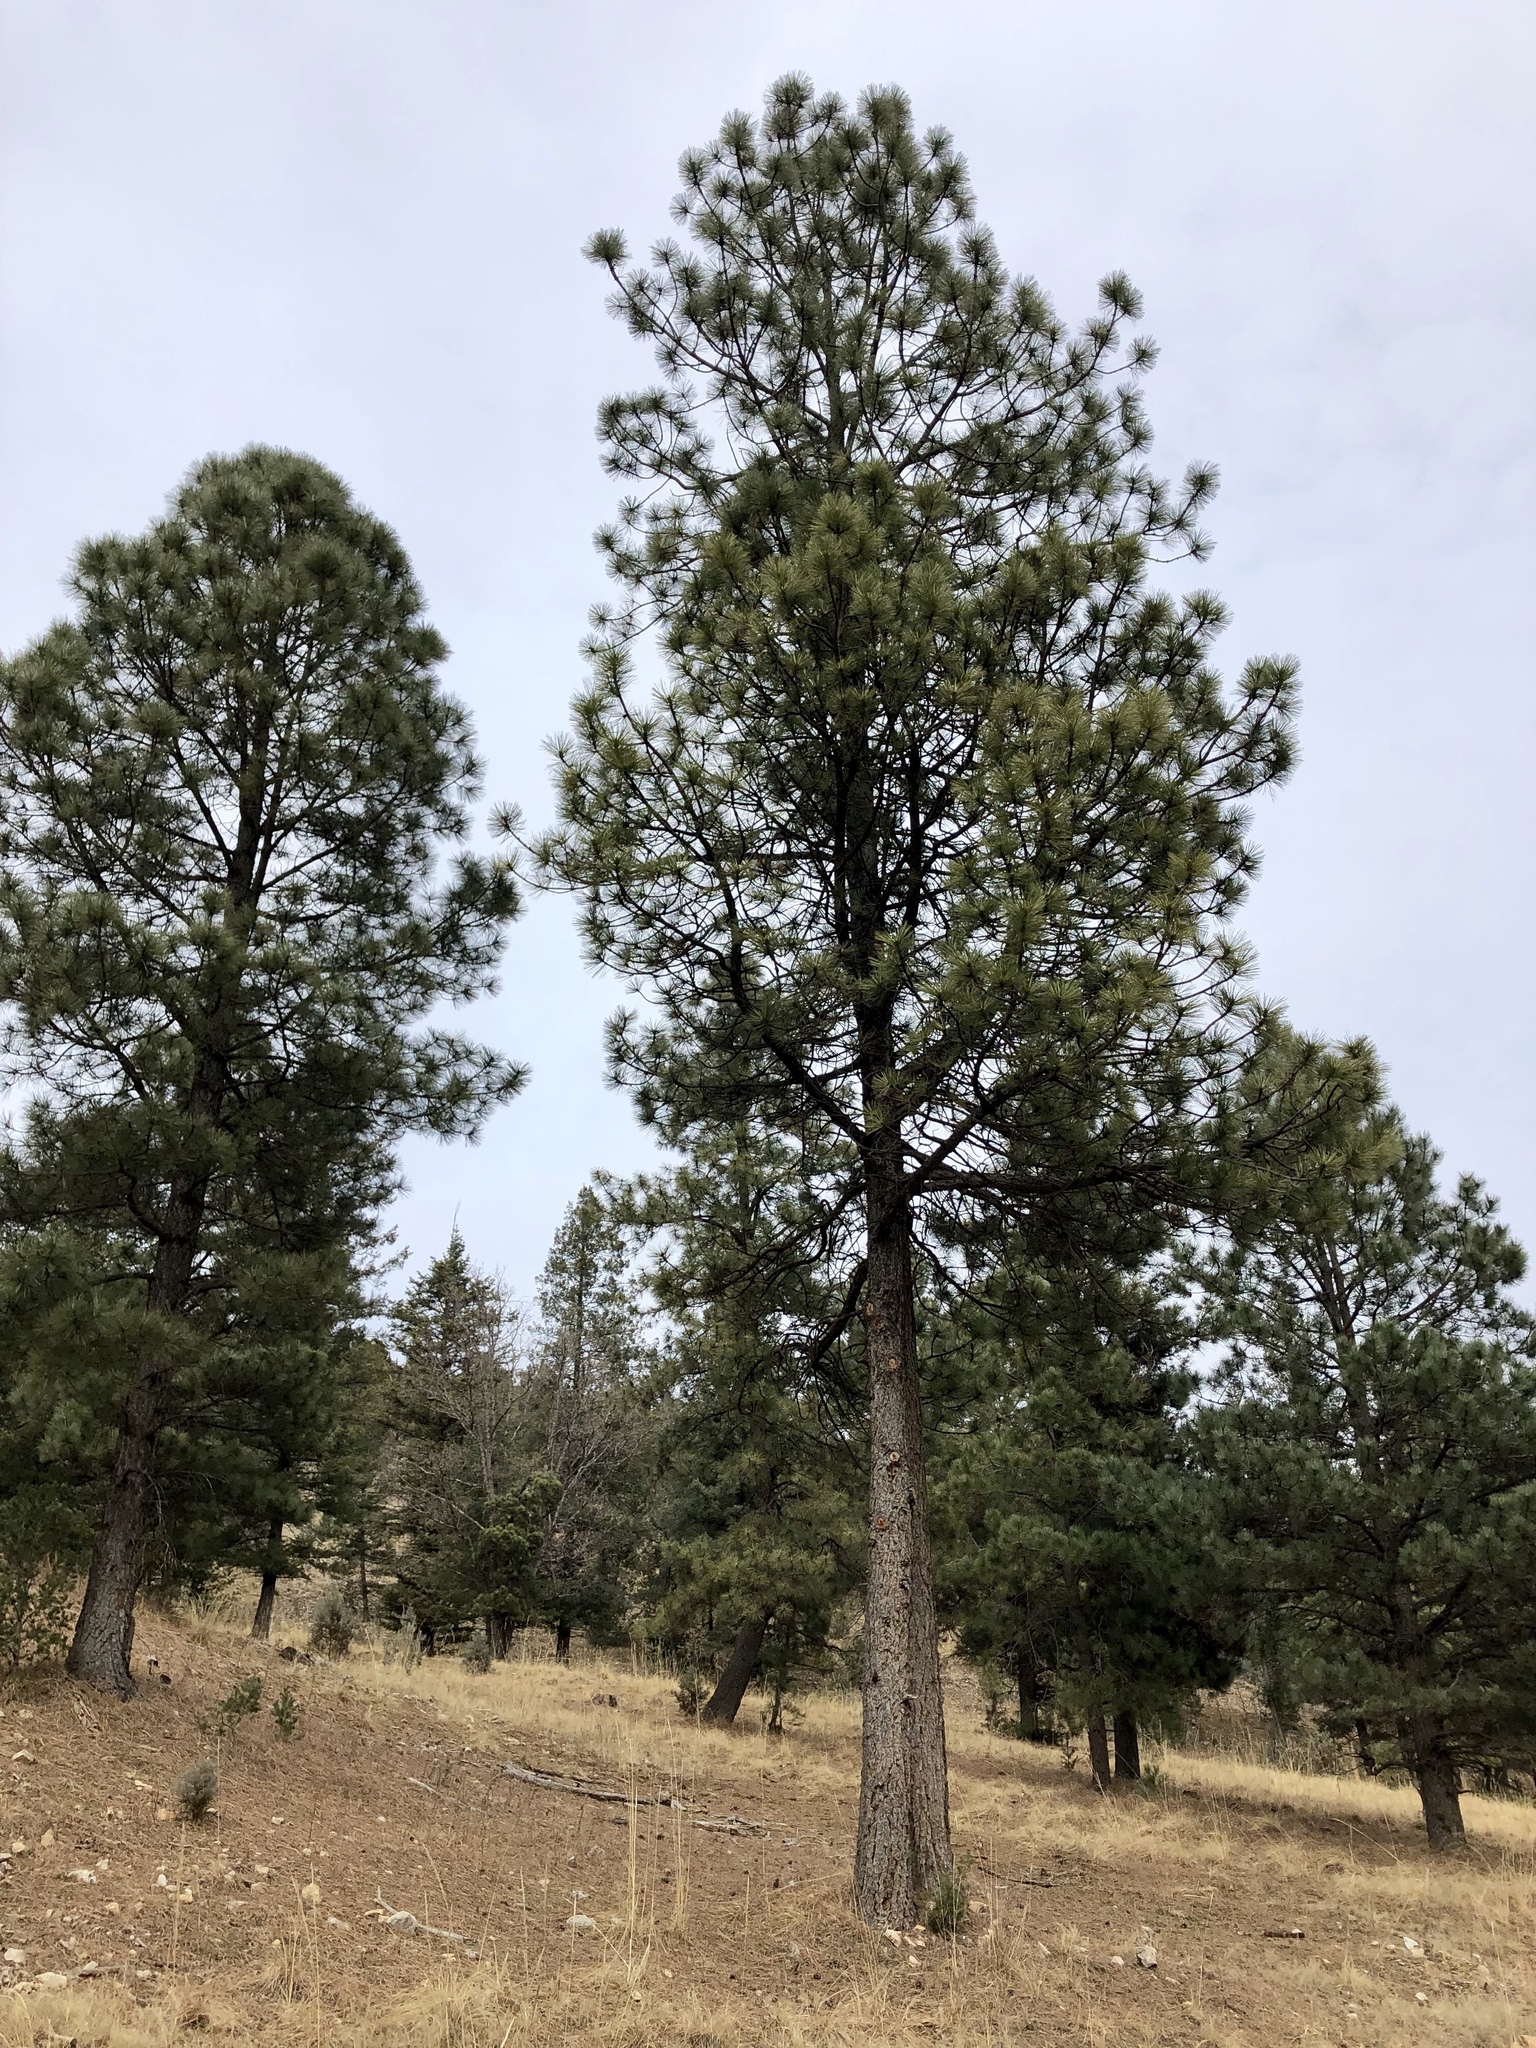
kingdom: Plantae
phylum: Tracheophyta
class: Pinopsida
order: Pinales
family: Pinaceae
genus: Pinus
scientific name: Pinus ponderosa
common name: Western yellow-pine
